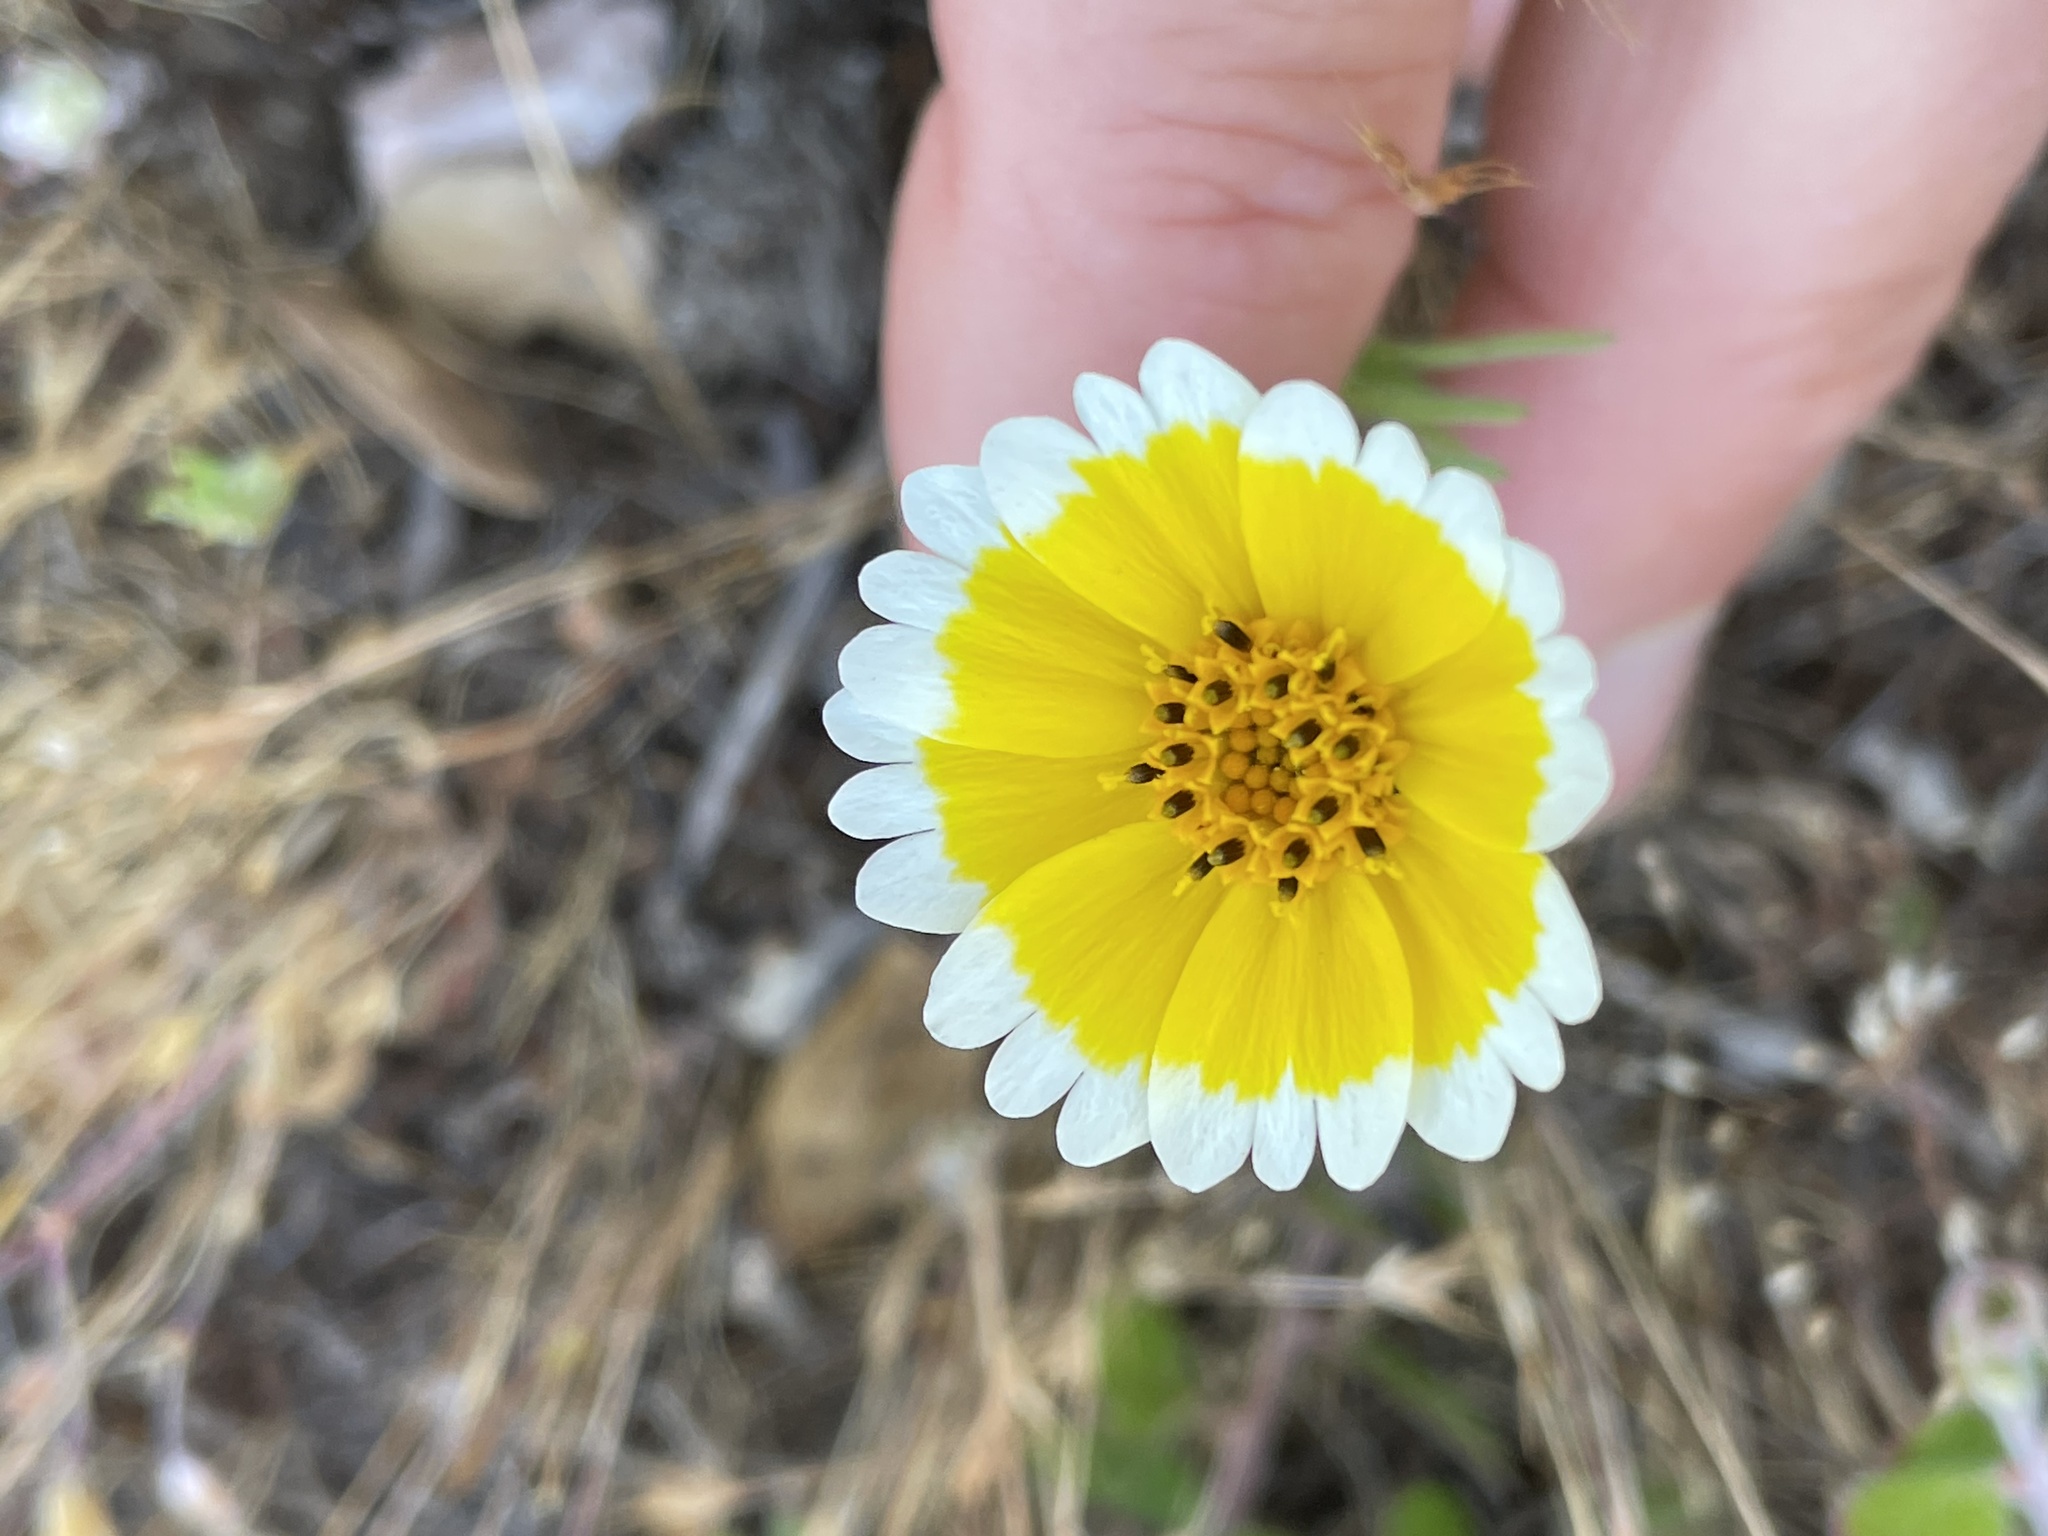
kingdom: Plantae
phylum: Tracheophyta
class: Magnoliopsida
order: Asterales
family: Asteraceae
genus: Layia
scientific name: Layia platyglossa
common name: Tidy-tips
